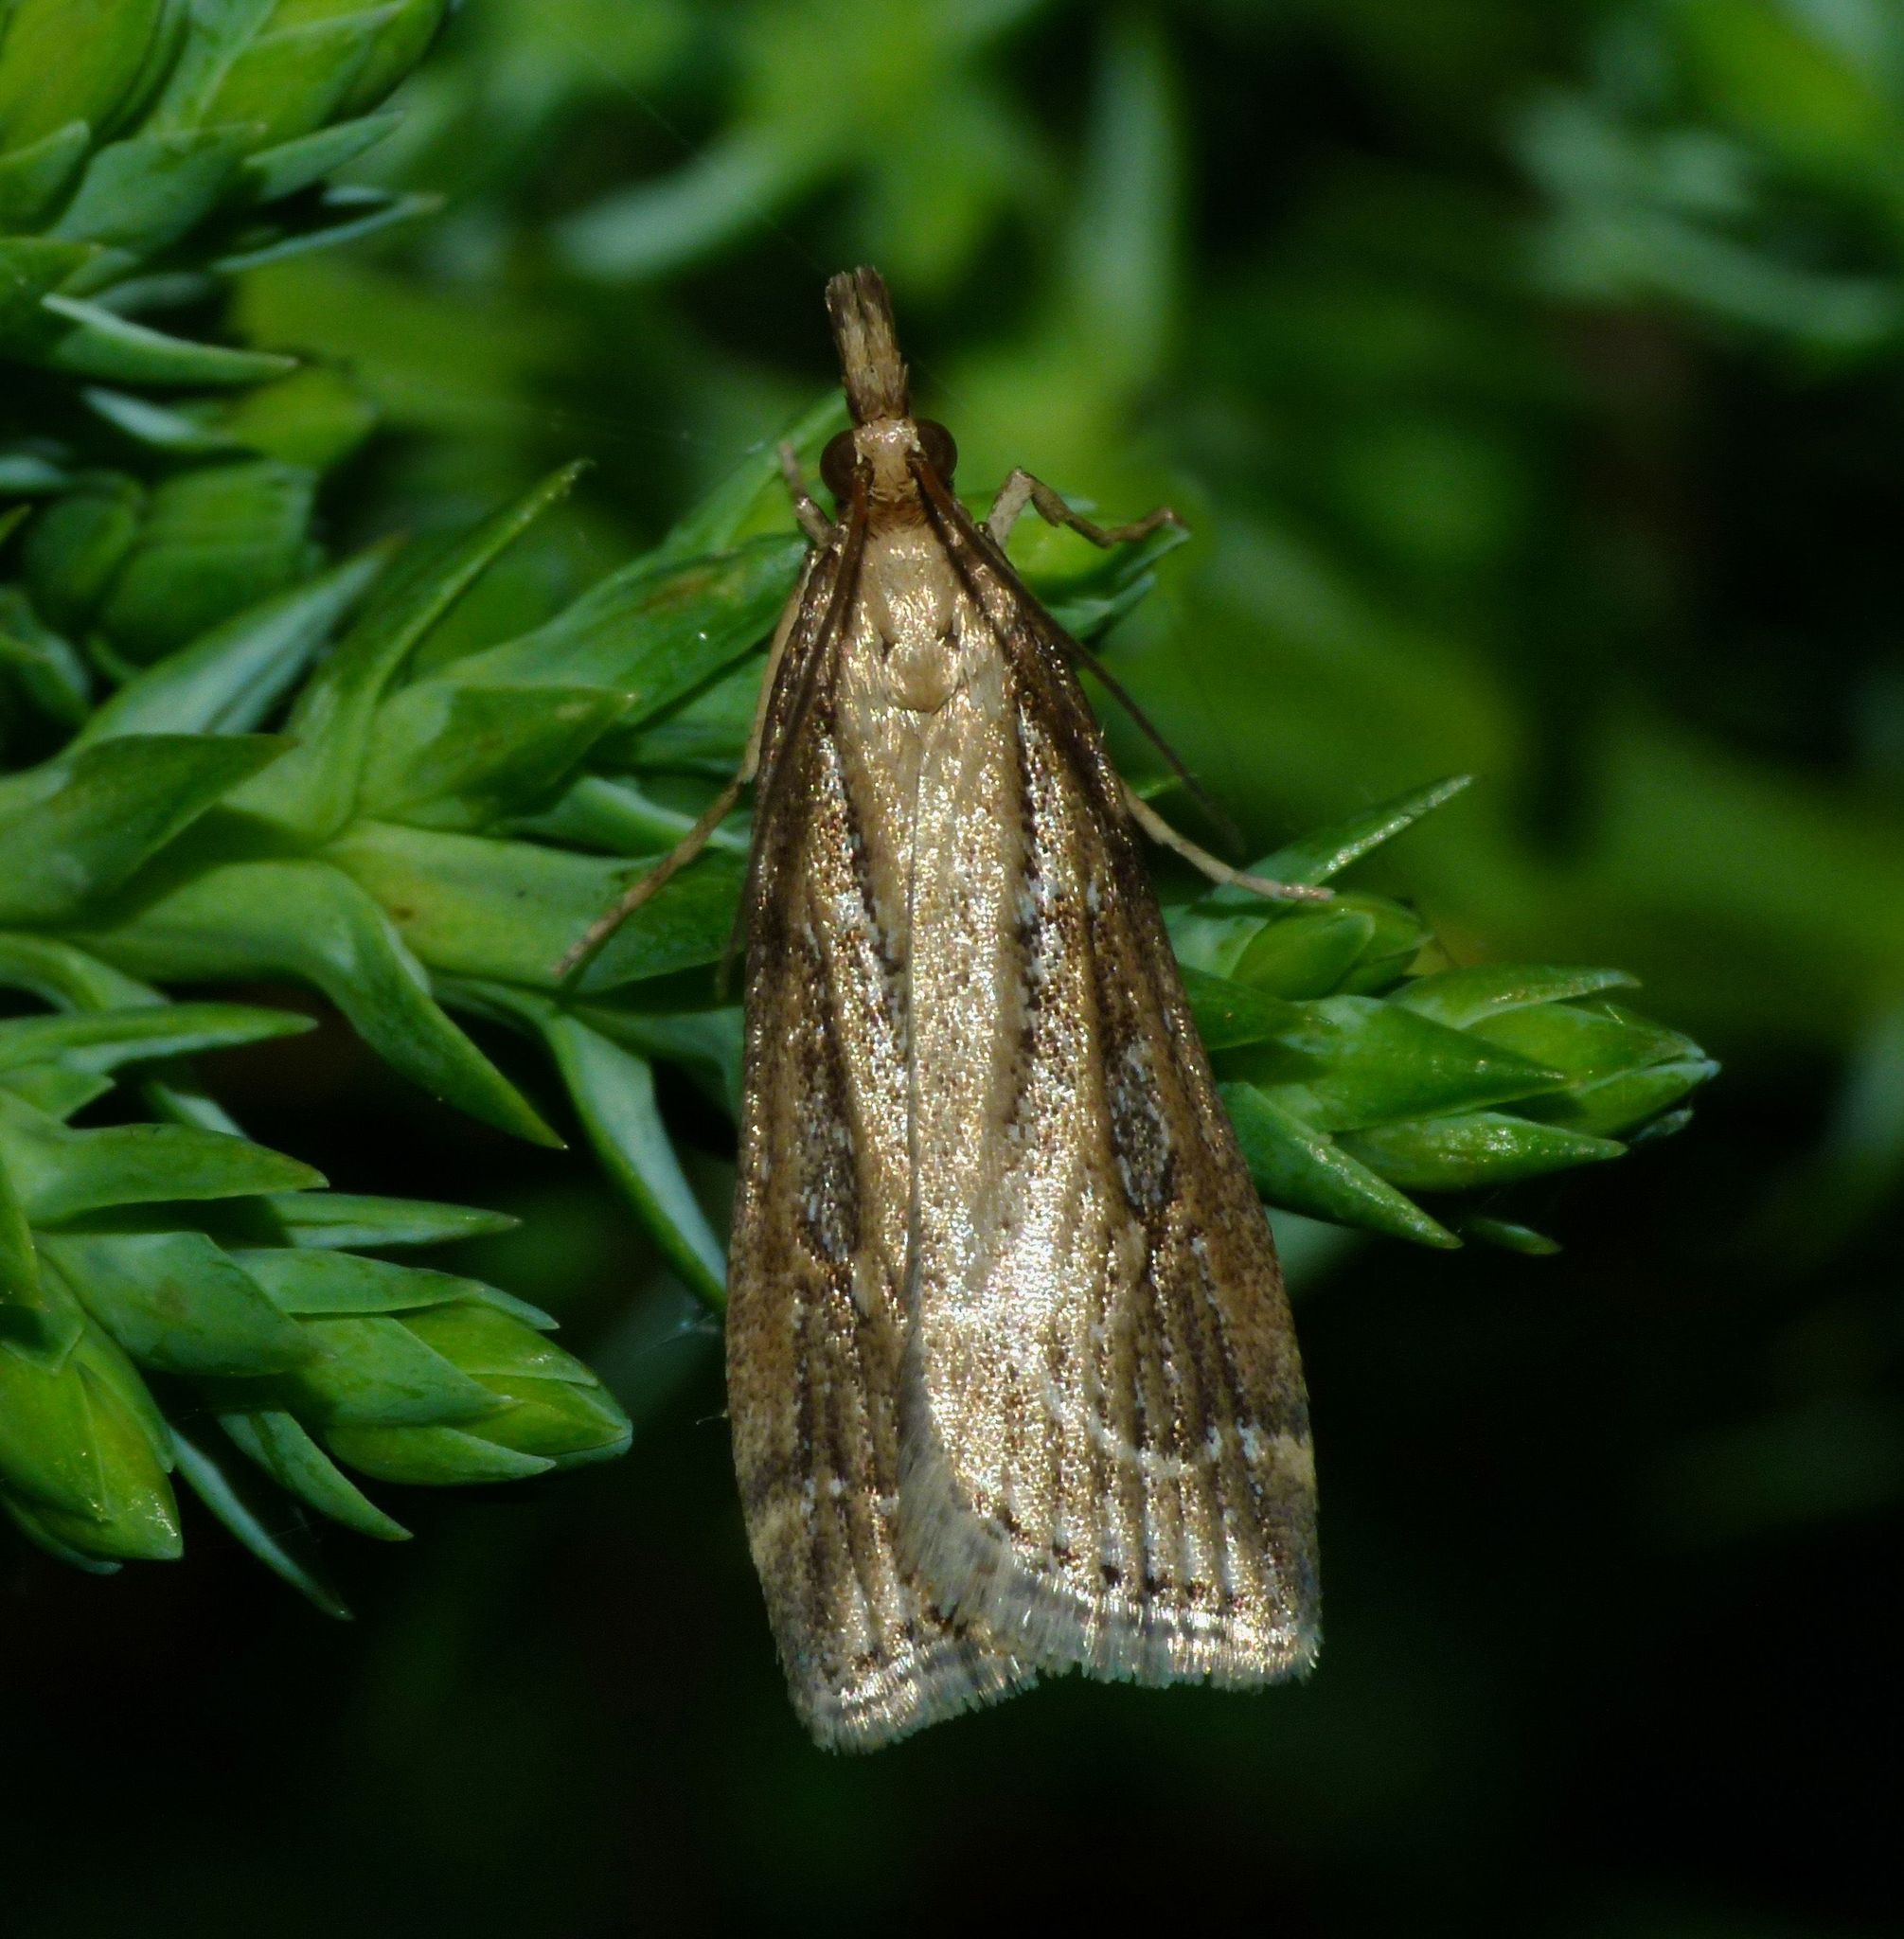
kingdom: Animalia
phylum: Arthropoda
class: Insecta
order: Lepidoptera
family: Crambidae
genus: Eudonia
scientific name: Eudonia octophora
